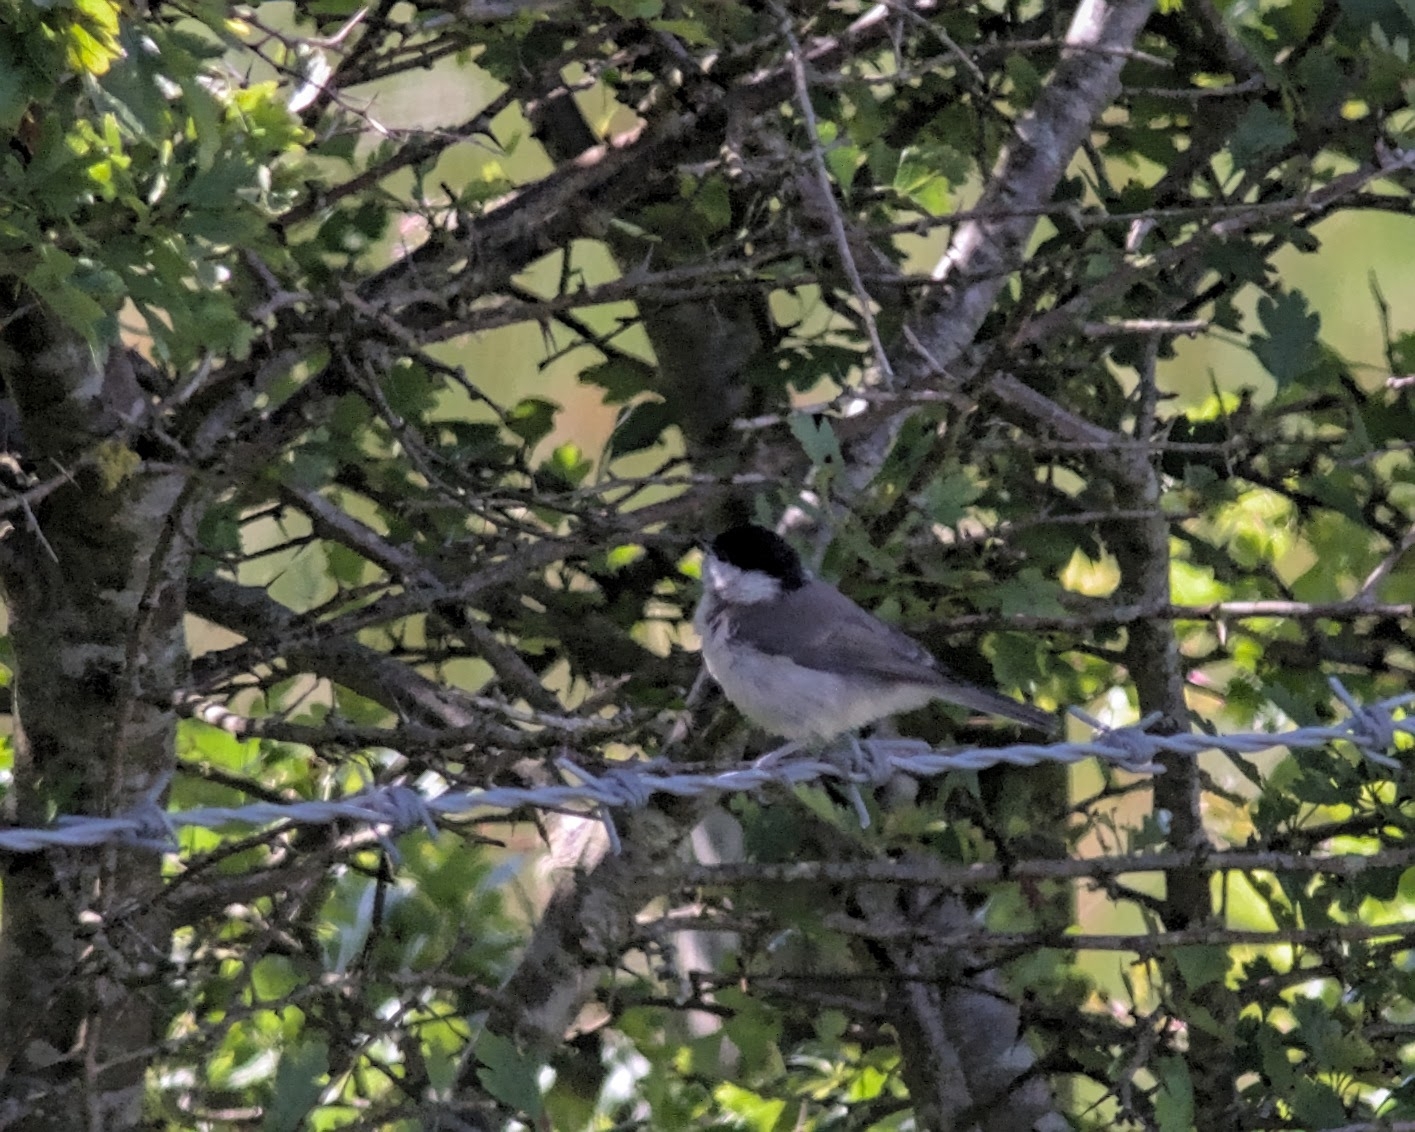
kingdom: Animalia
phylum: Chordata
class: Aves
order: Passeriformes
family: Paridae
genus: Poecile
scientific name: Poecile palustris
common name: Marsh tit
